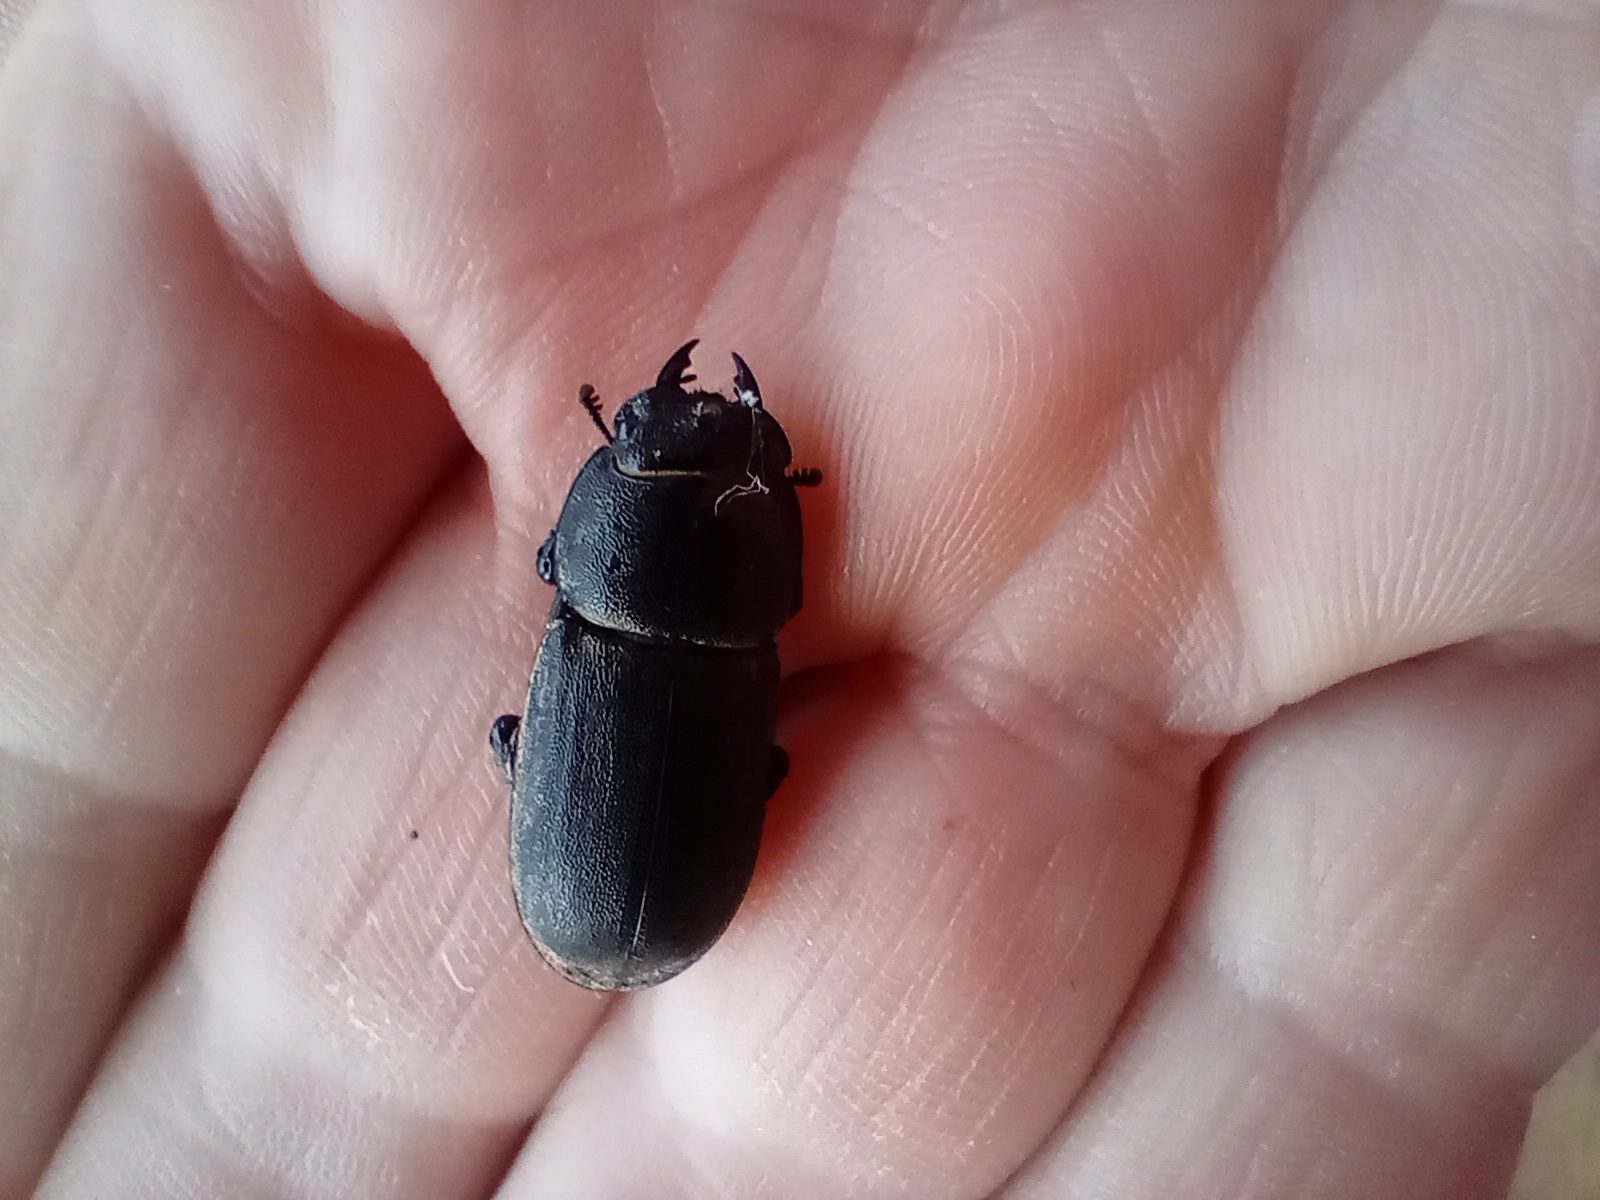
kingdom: Animalia
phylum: Arthropoda
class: Insecta
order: Coleoptera
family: Lucanidae
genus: Dorcus
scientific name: Dorcus parallelipipedus
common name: Lesser stag beetle
